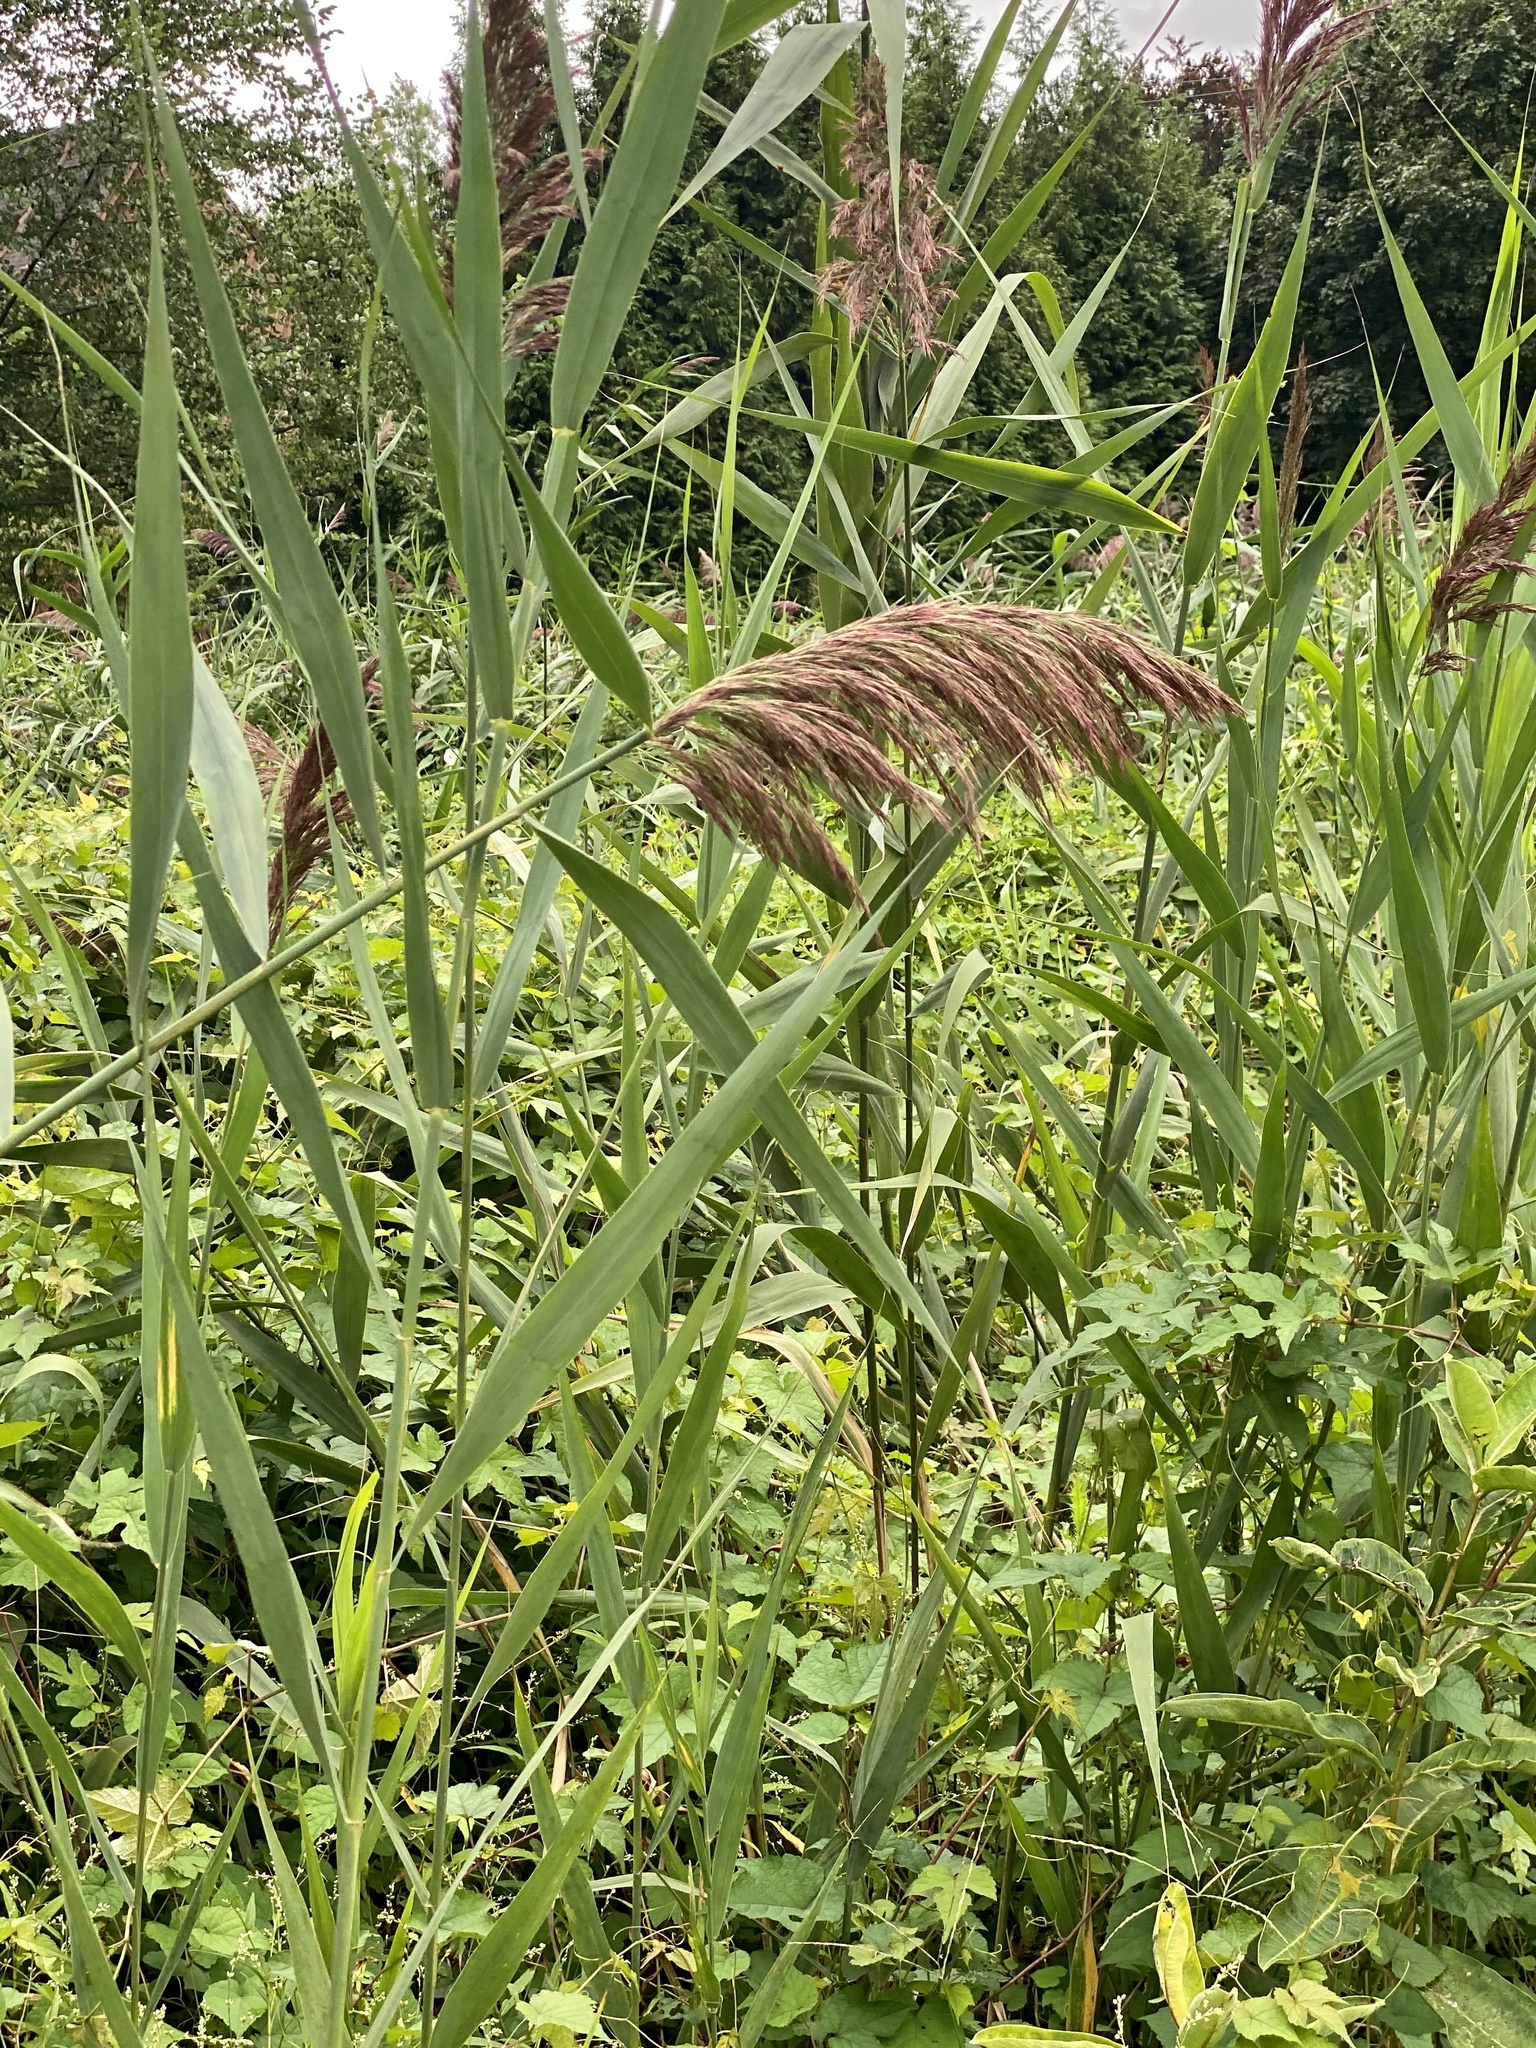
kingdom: Plantae
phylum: Tracheophyta
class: Liliopsida
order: Poales
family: Poaceae
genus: Phragmites
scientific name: Phragmites australis
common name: Common reed
